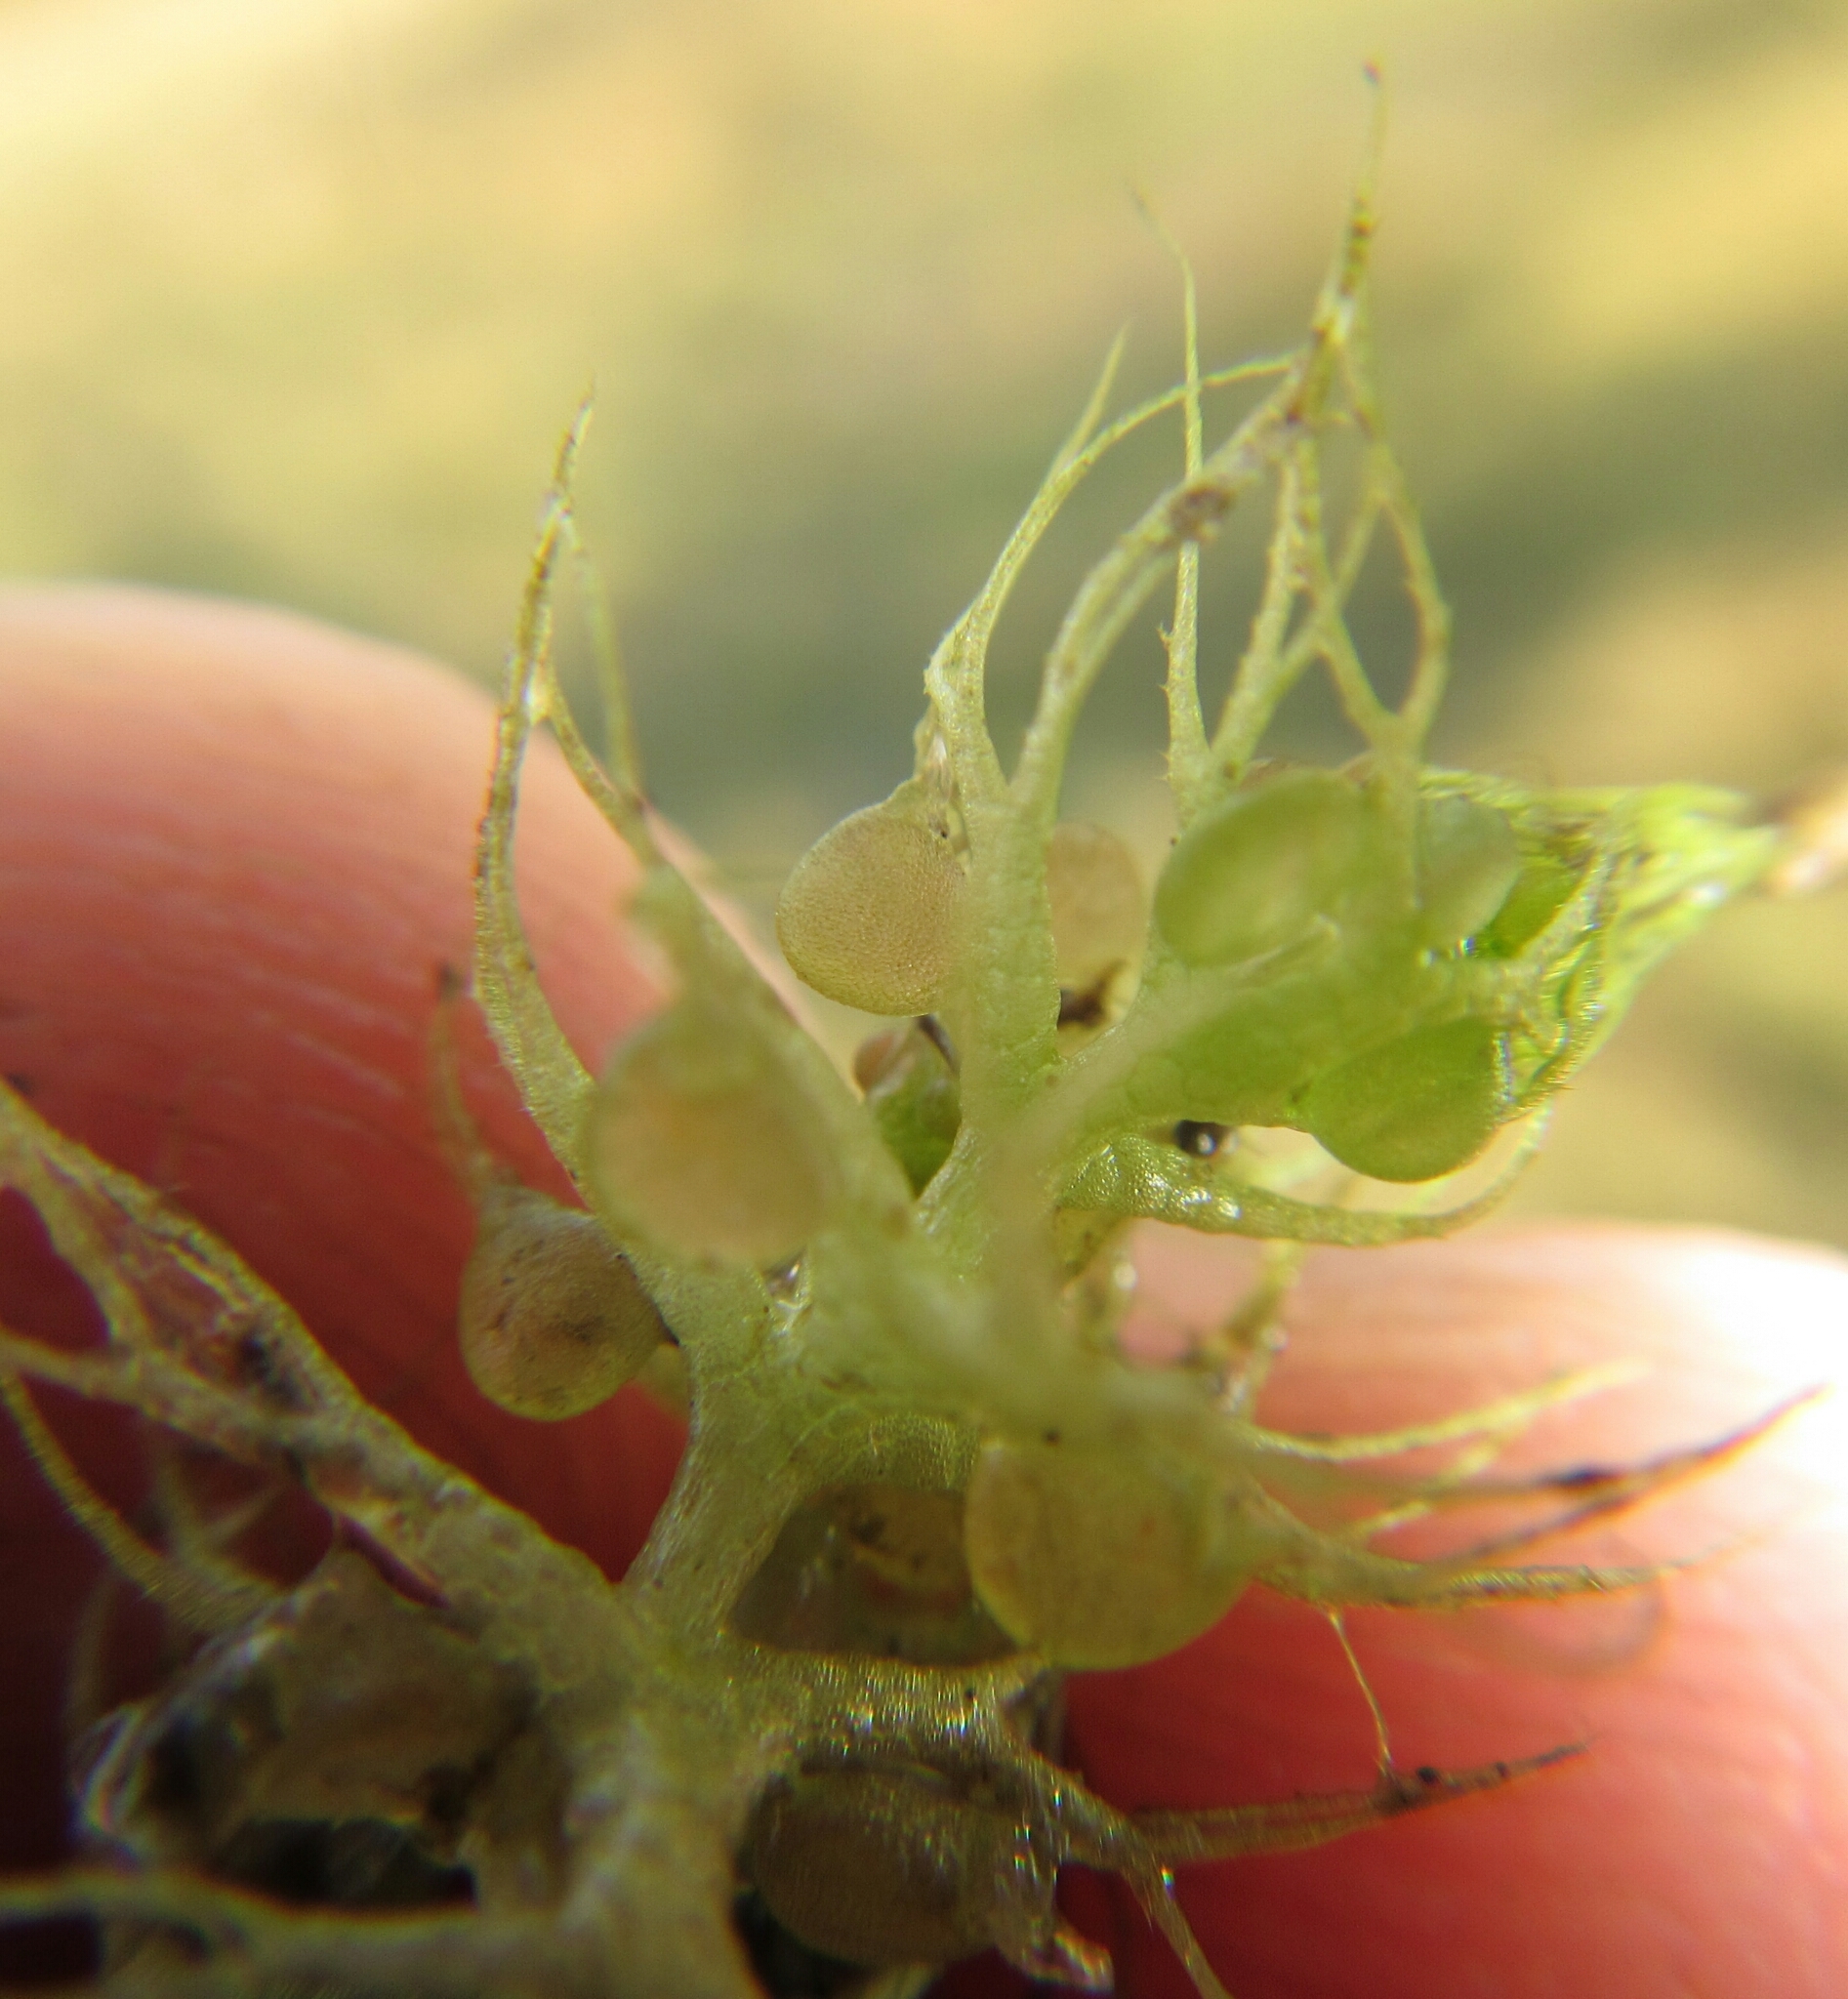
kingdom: Plantae
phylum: Tracheophyta
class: Magnoliopsida
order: Lamiales
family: Lentibulariaceae
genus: Utricularia
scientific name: Utricularia raynalii
